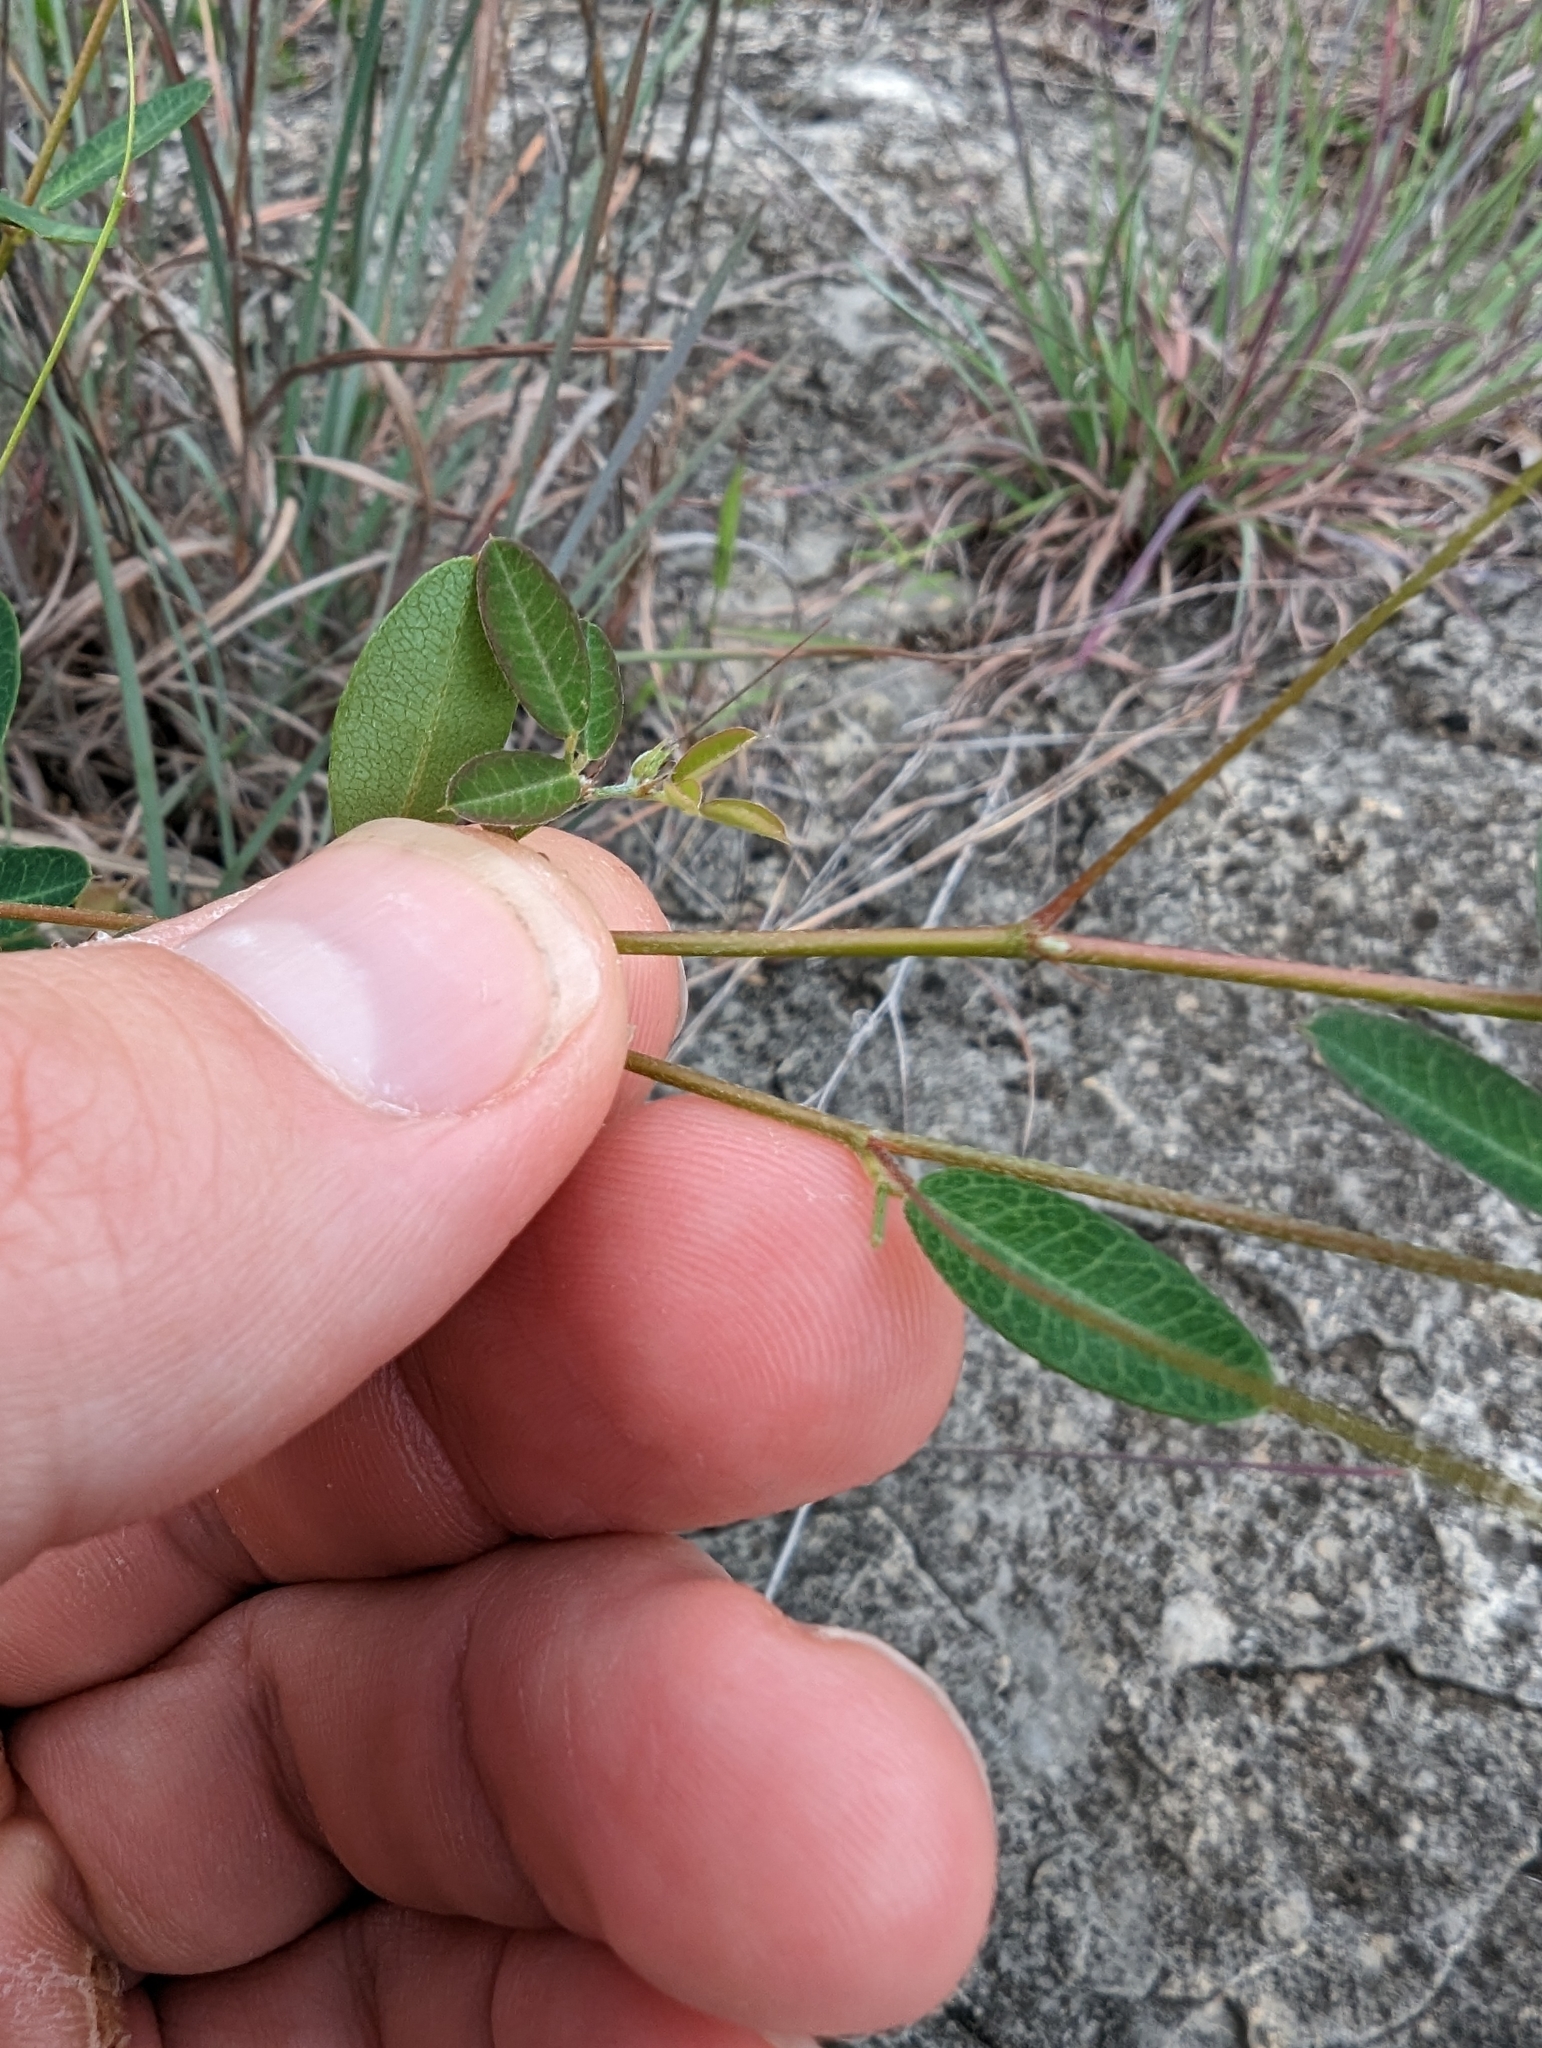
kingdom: Plantae
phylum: Tracheophyta
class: Magnoliopsida
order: Fabales
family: Fabaceae
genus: Lespedeza
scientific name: Lespedeza texana
